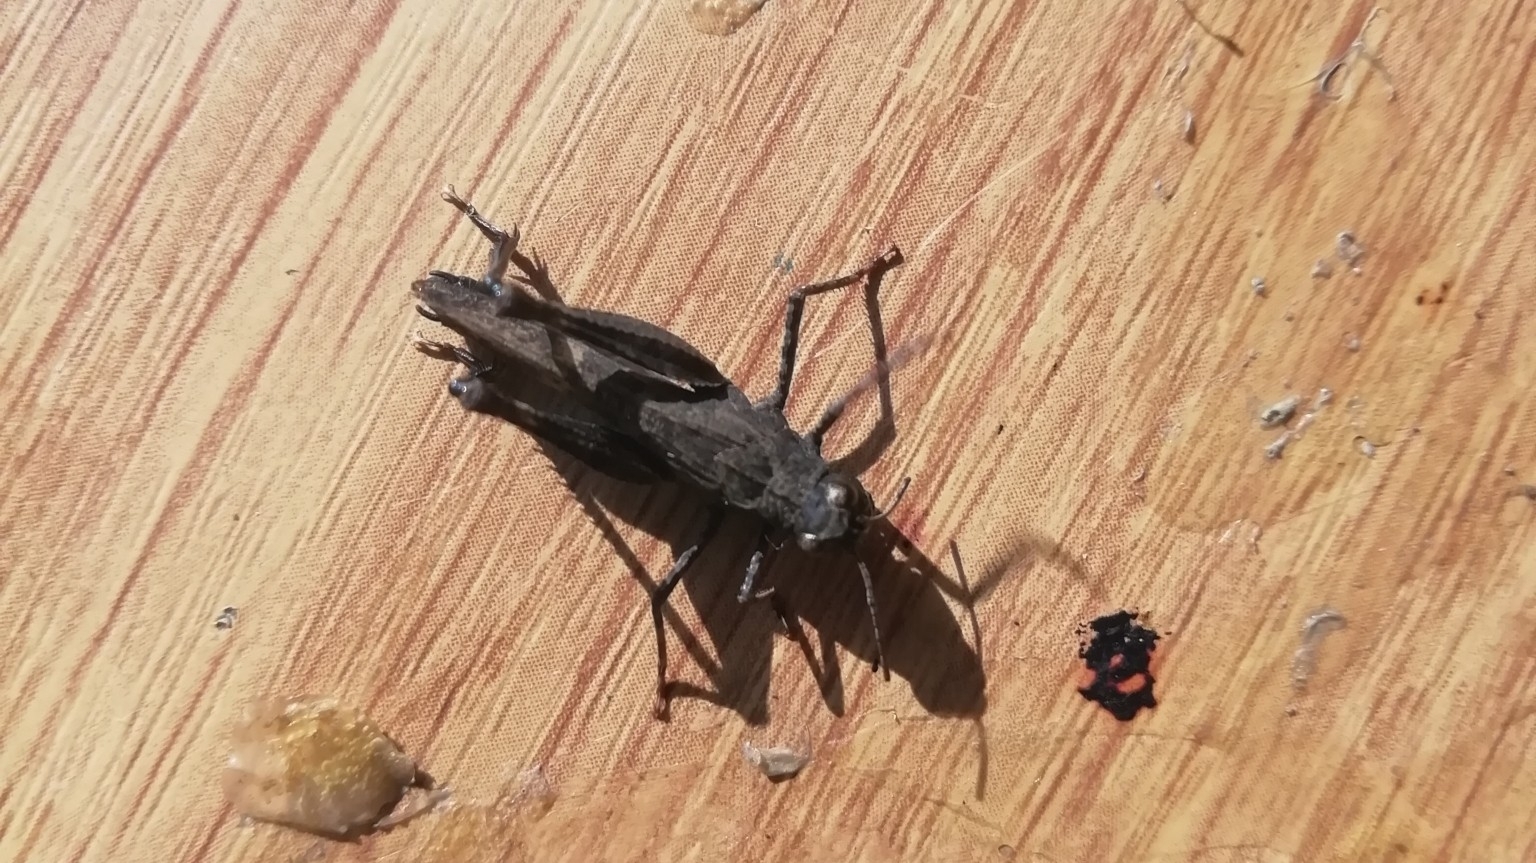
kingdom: Animalia
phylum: Arthropoda
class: Insecta
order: Orthoptera
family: Acrididae
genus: Celes
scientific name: Celes variabilis
